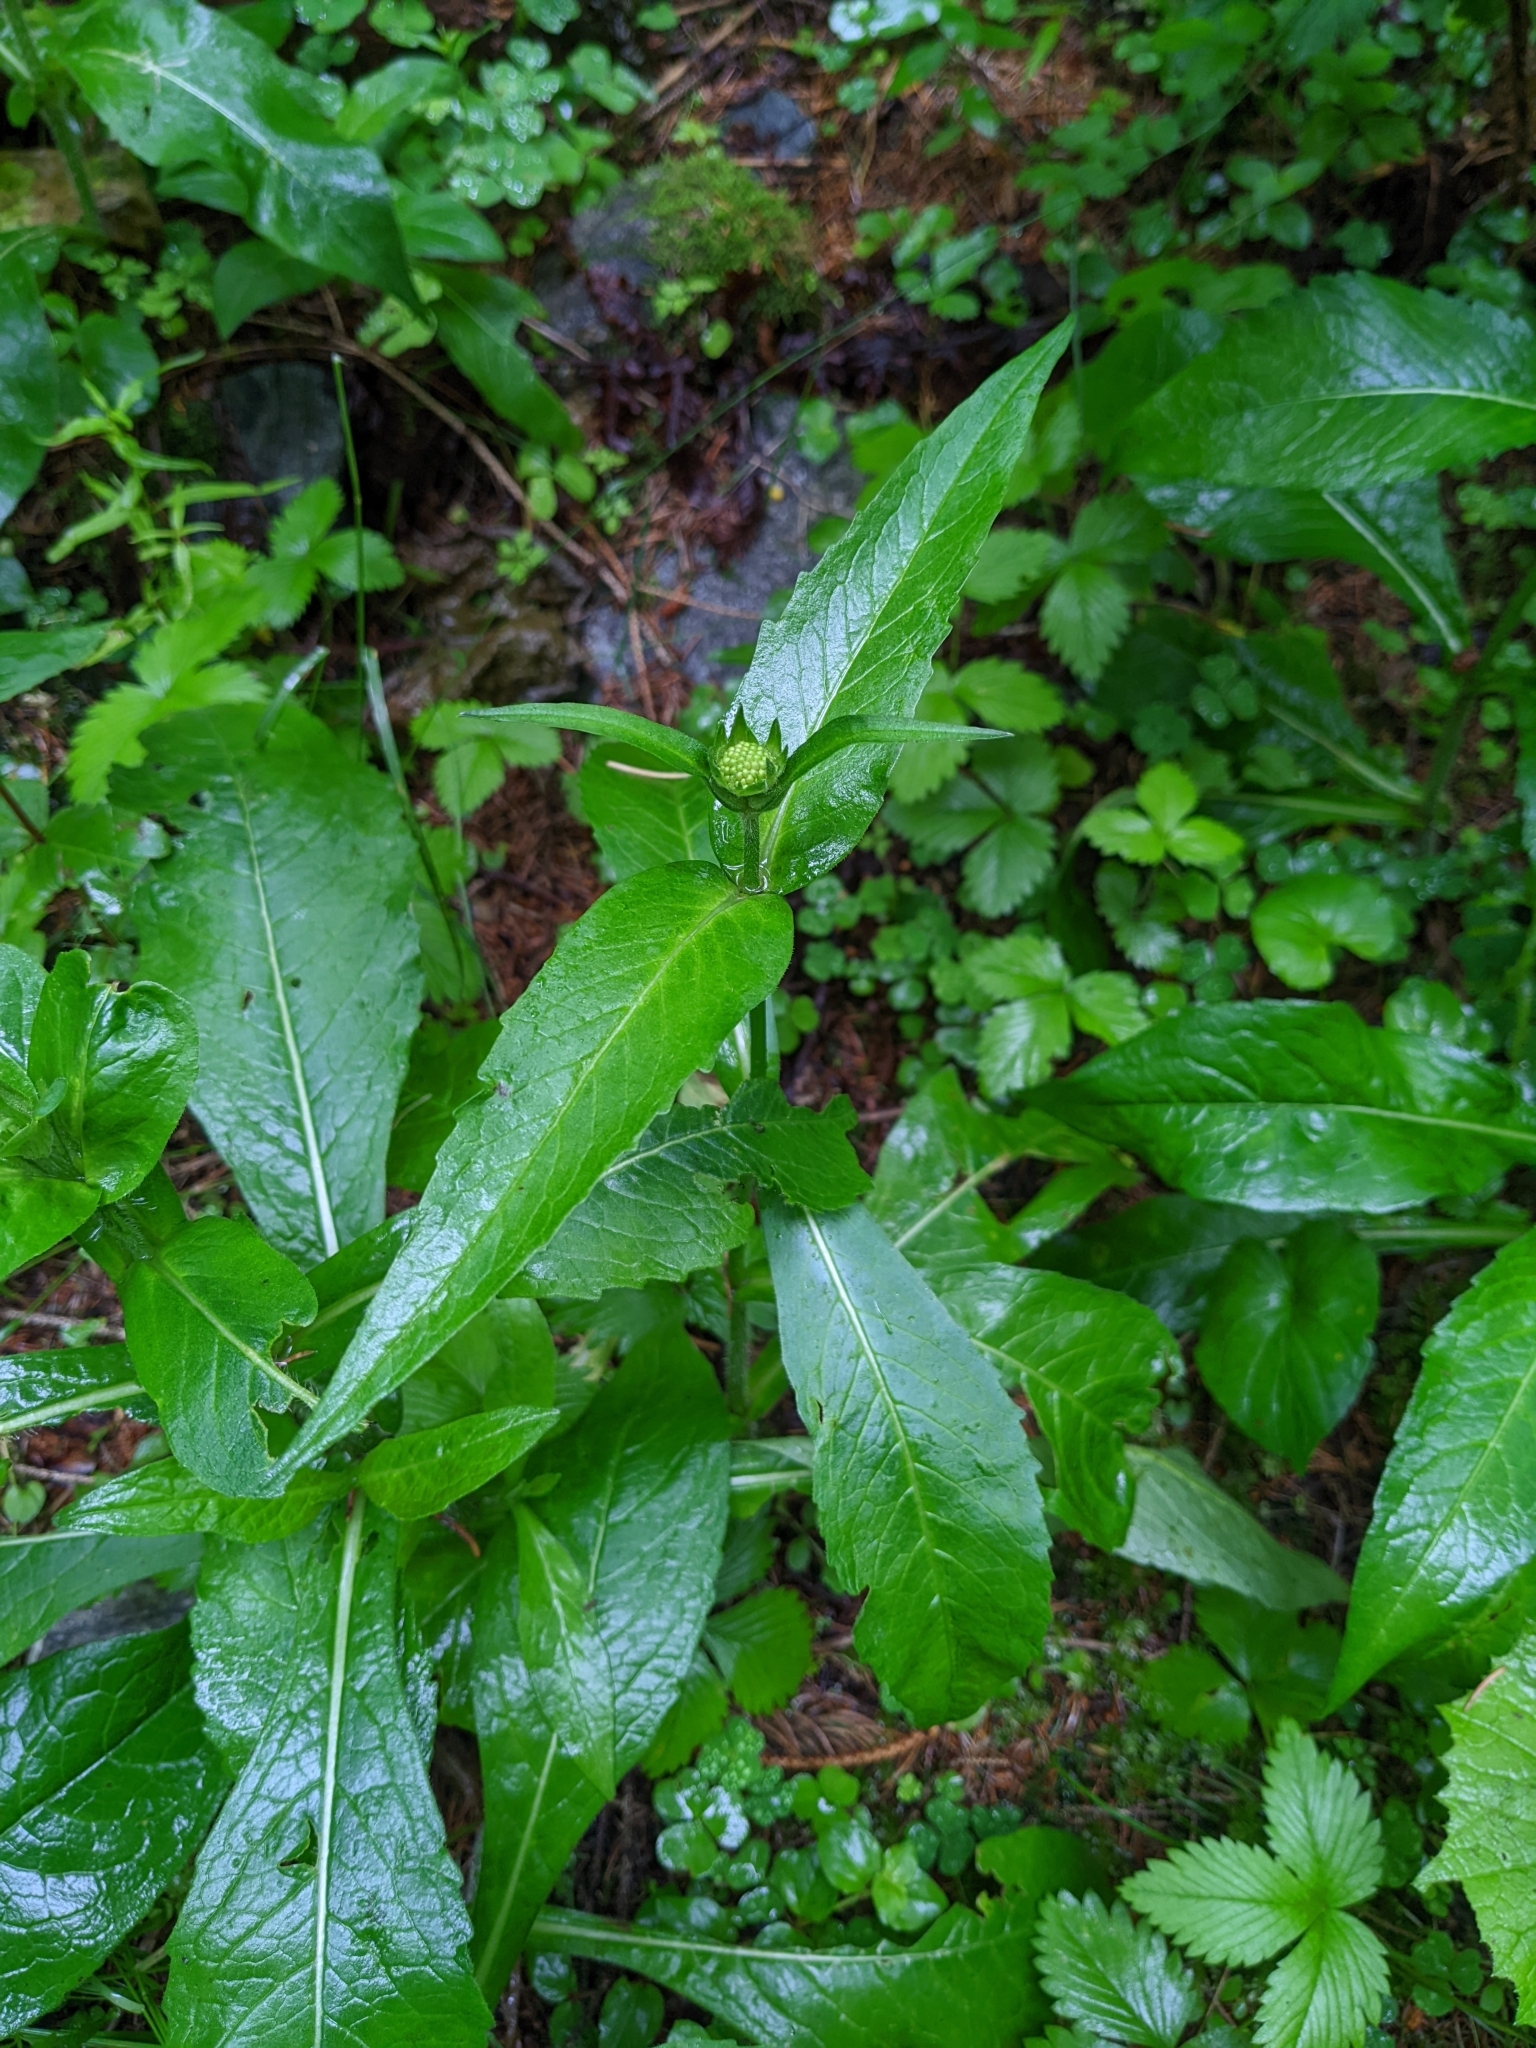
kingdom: Plantae
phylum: Tracheophyta
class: Magnoliopsida
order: Dipsacales
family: Caprifoliaceae
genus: Knautia
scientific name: Knautia dipsacifolia
